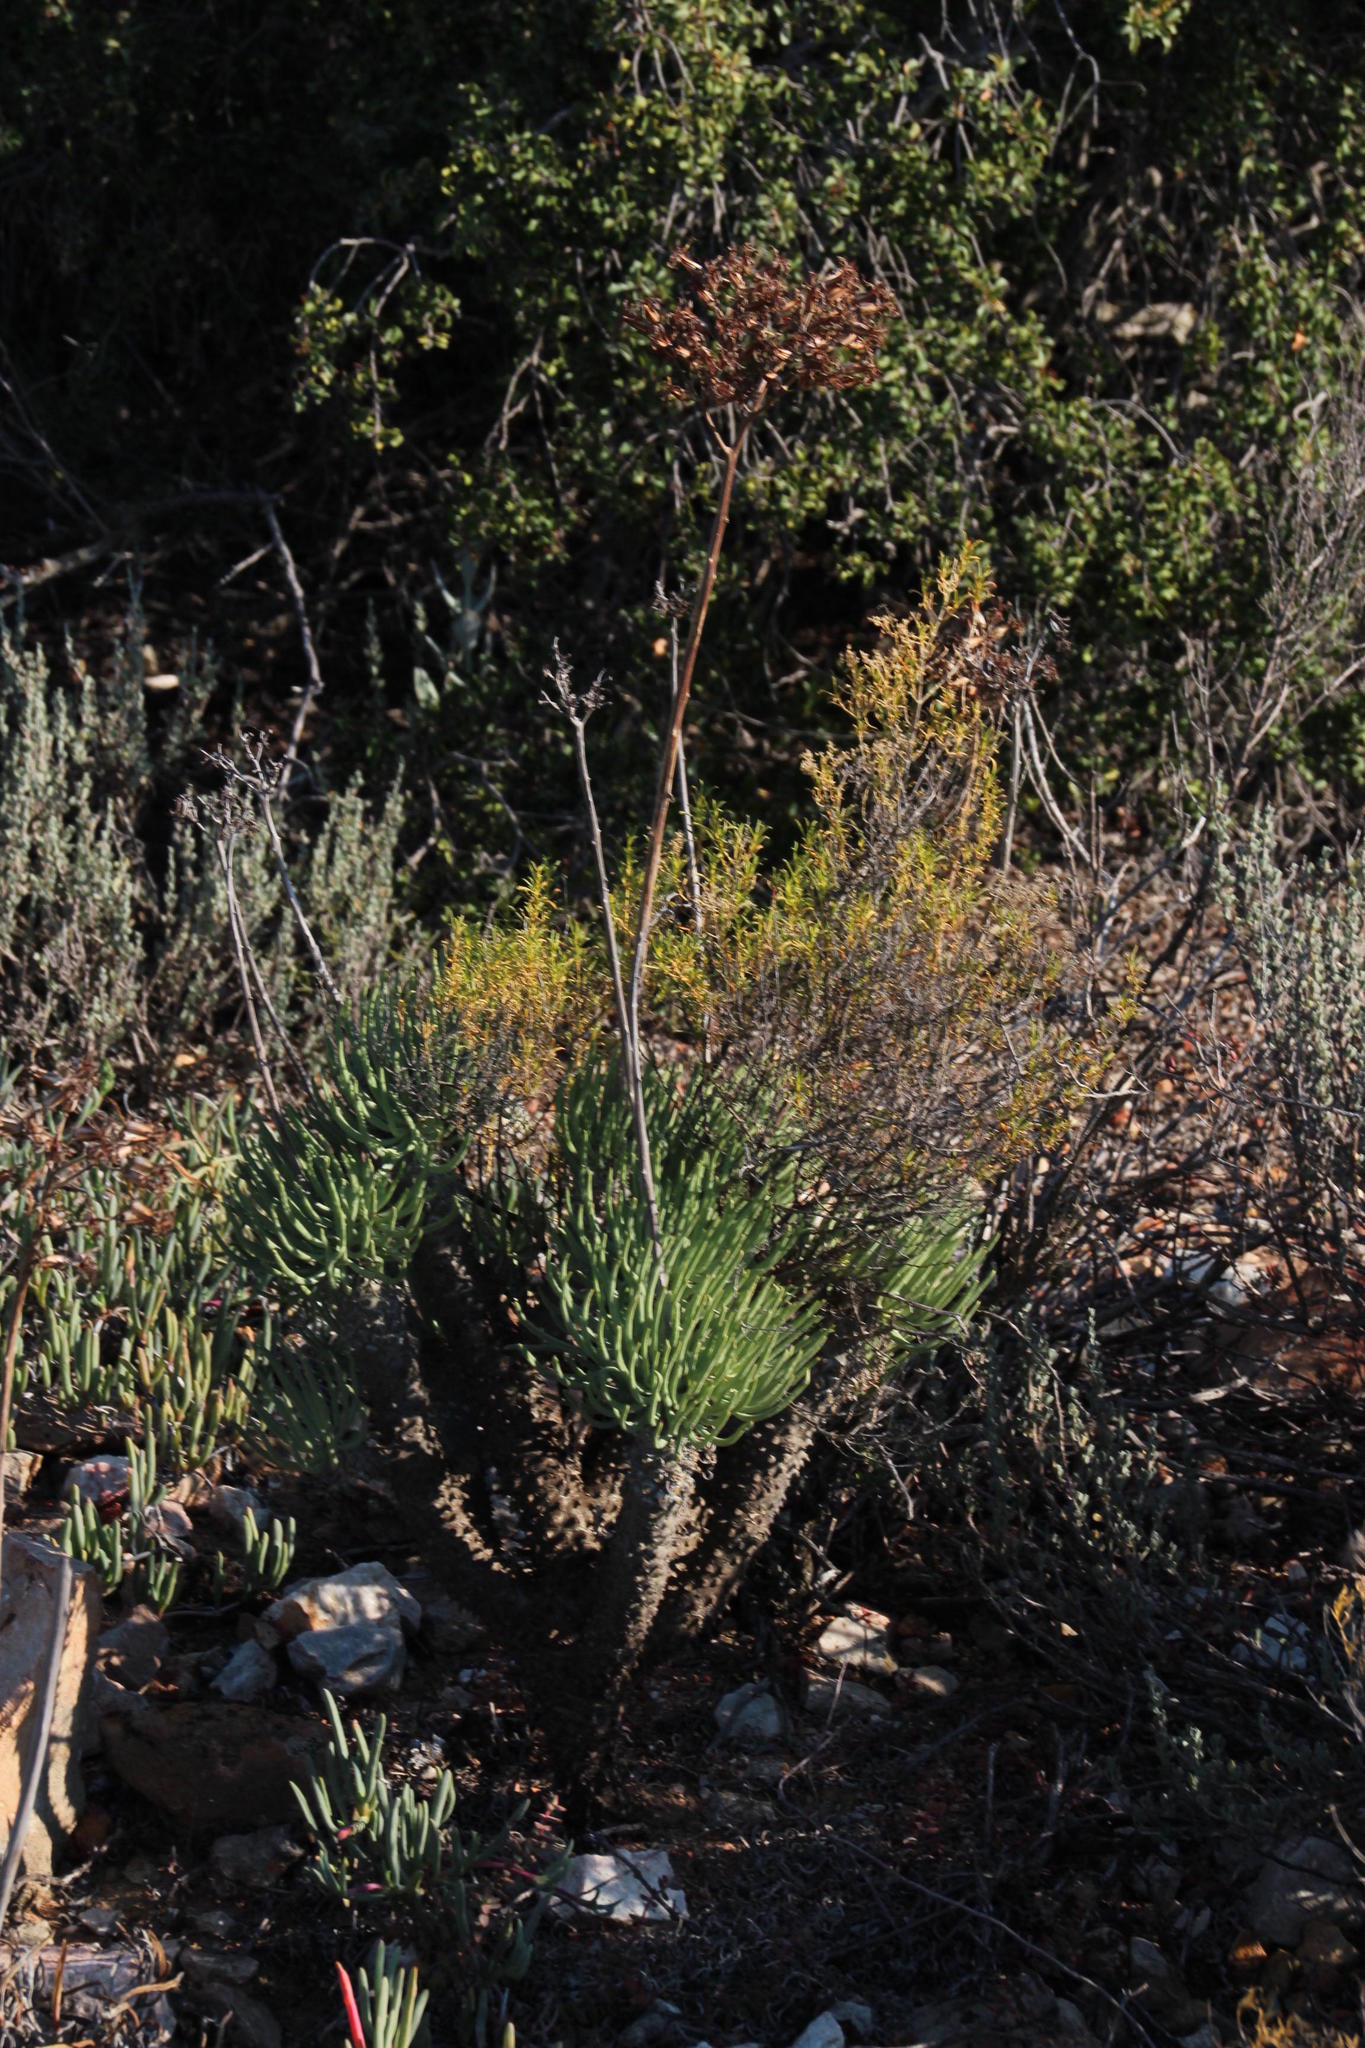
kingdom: Plantae
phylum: Tracheophyta
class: Magnoliopsida
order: Saxifragales
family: Crassulaceae
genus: Tylecodon
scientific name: Tylecodon wallichii
